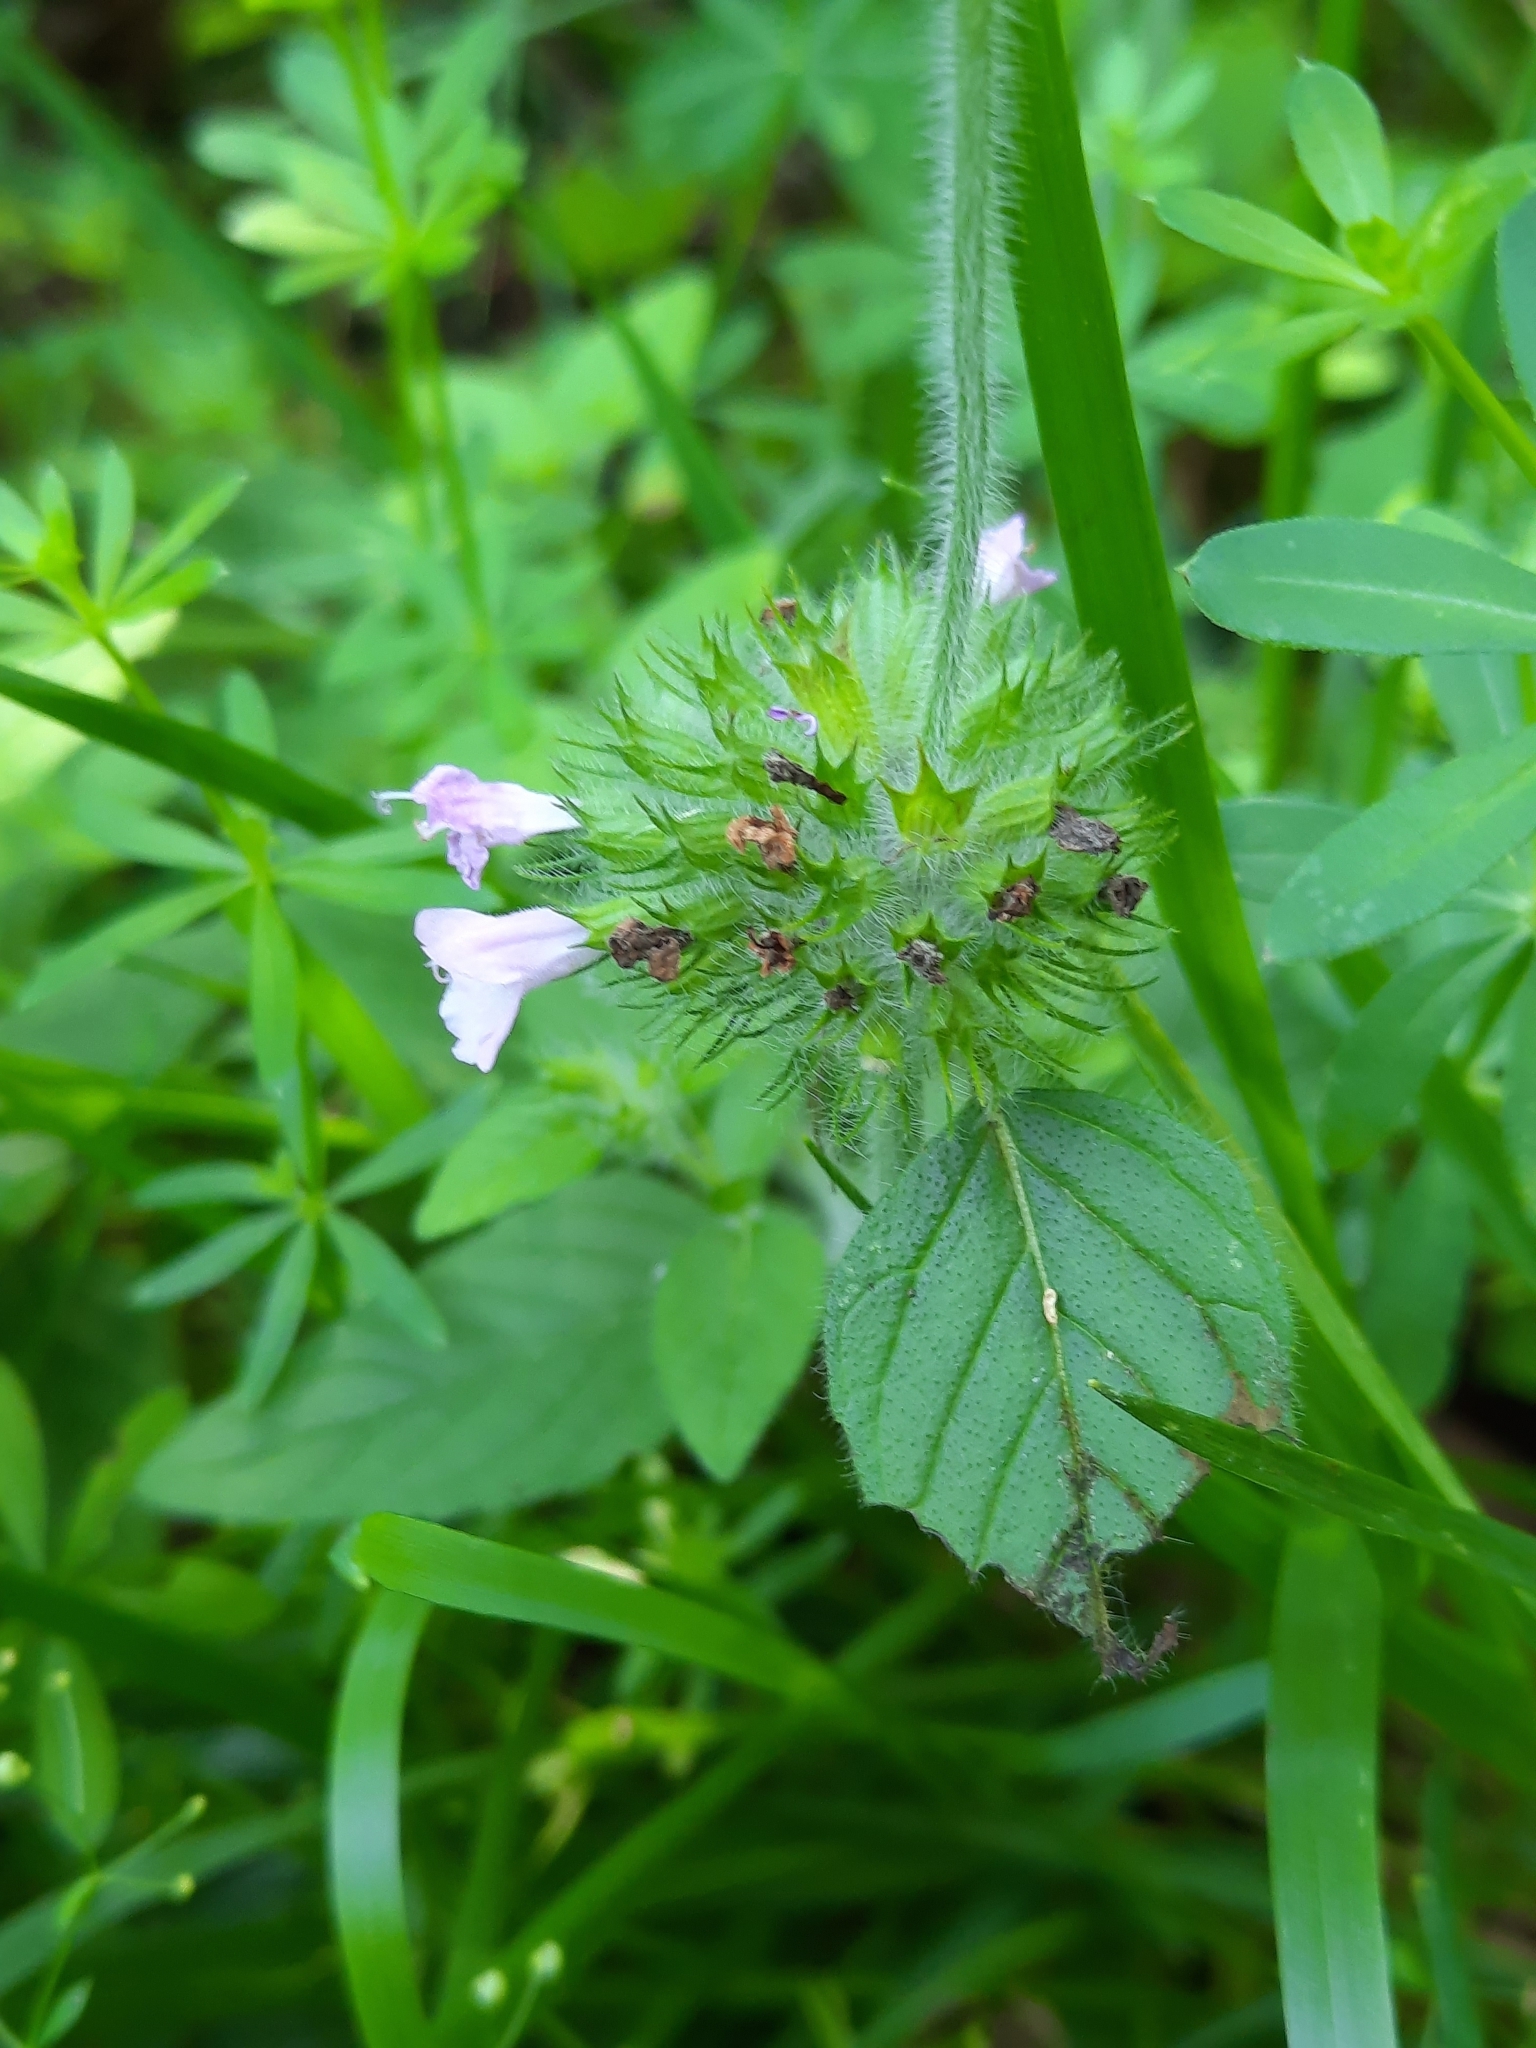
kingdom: Plantae
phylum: Tracheophyta
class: Magnoliopsida
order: Lamiales
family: Lamiaceae
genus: Clinopodium
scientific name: Clinopodium vulgare
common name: Wild basil
